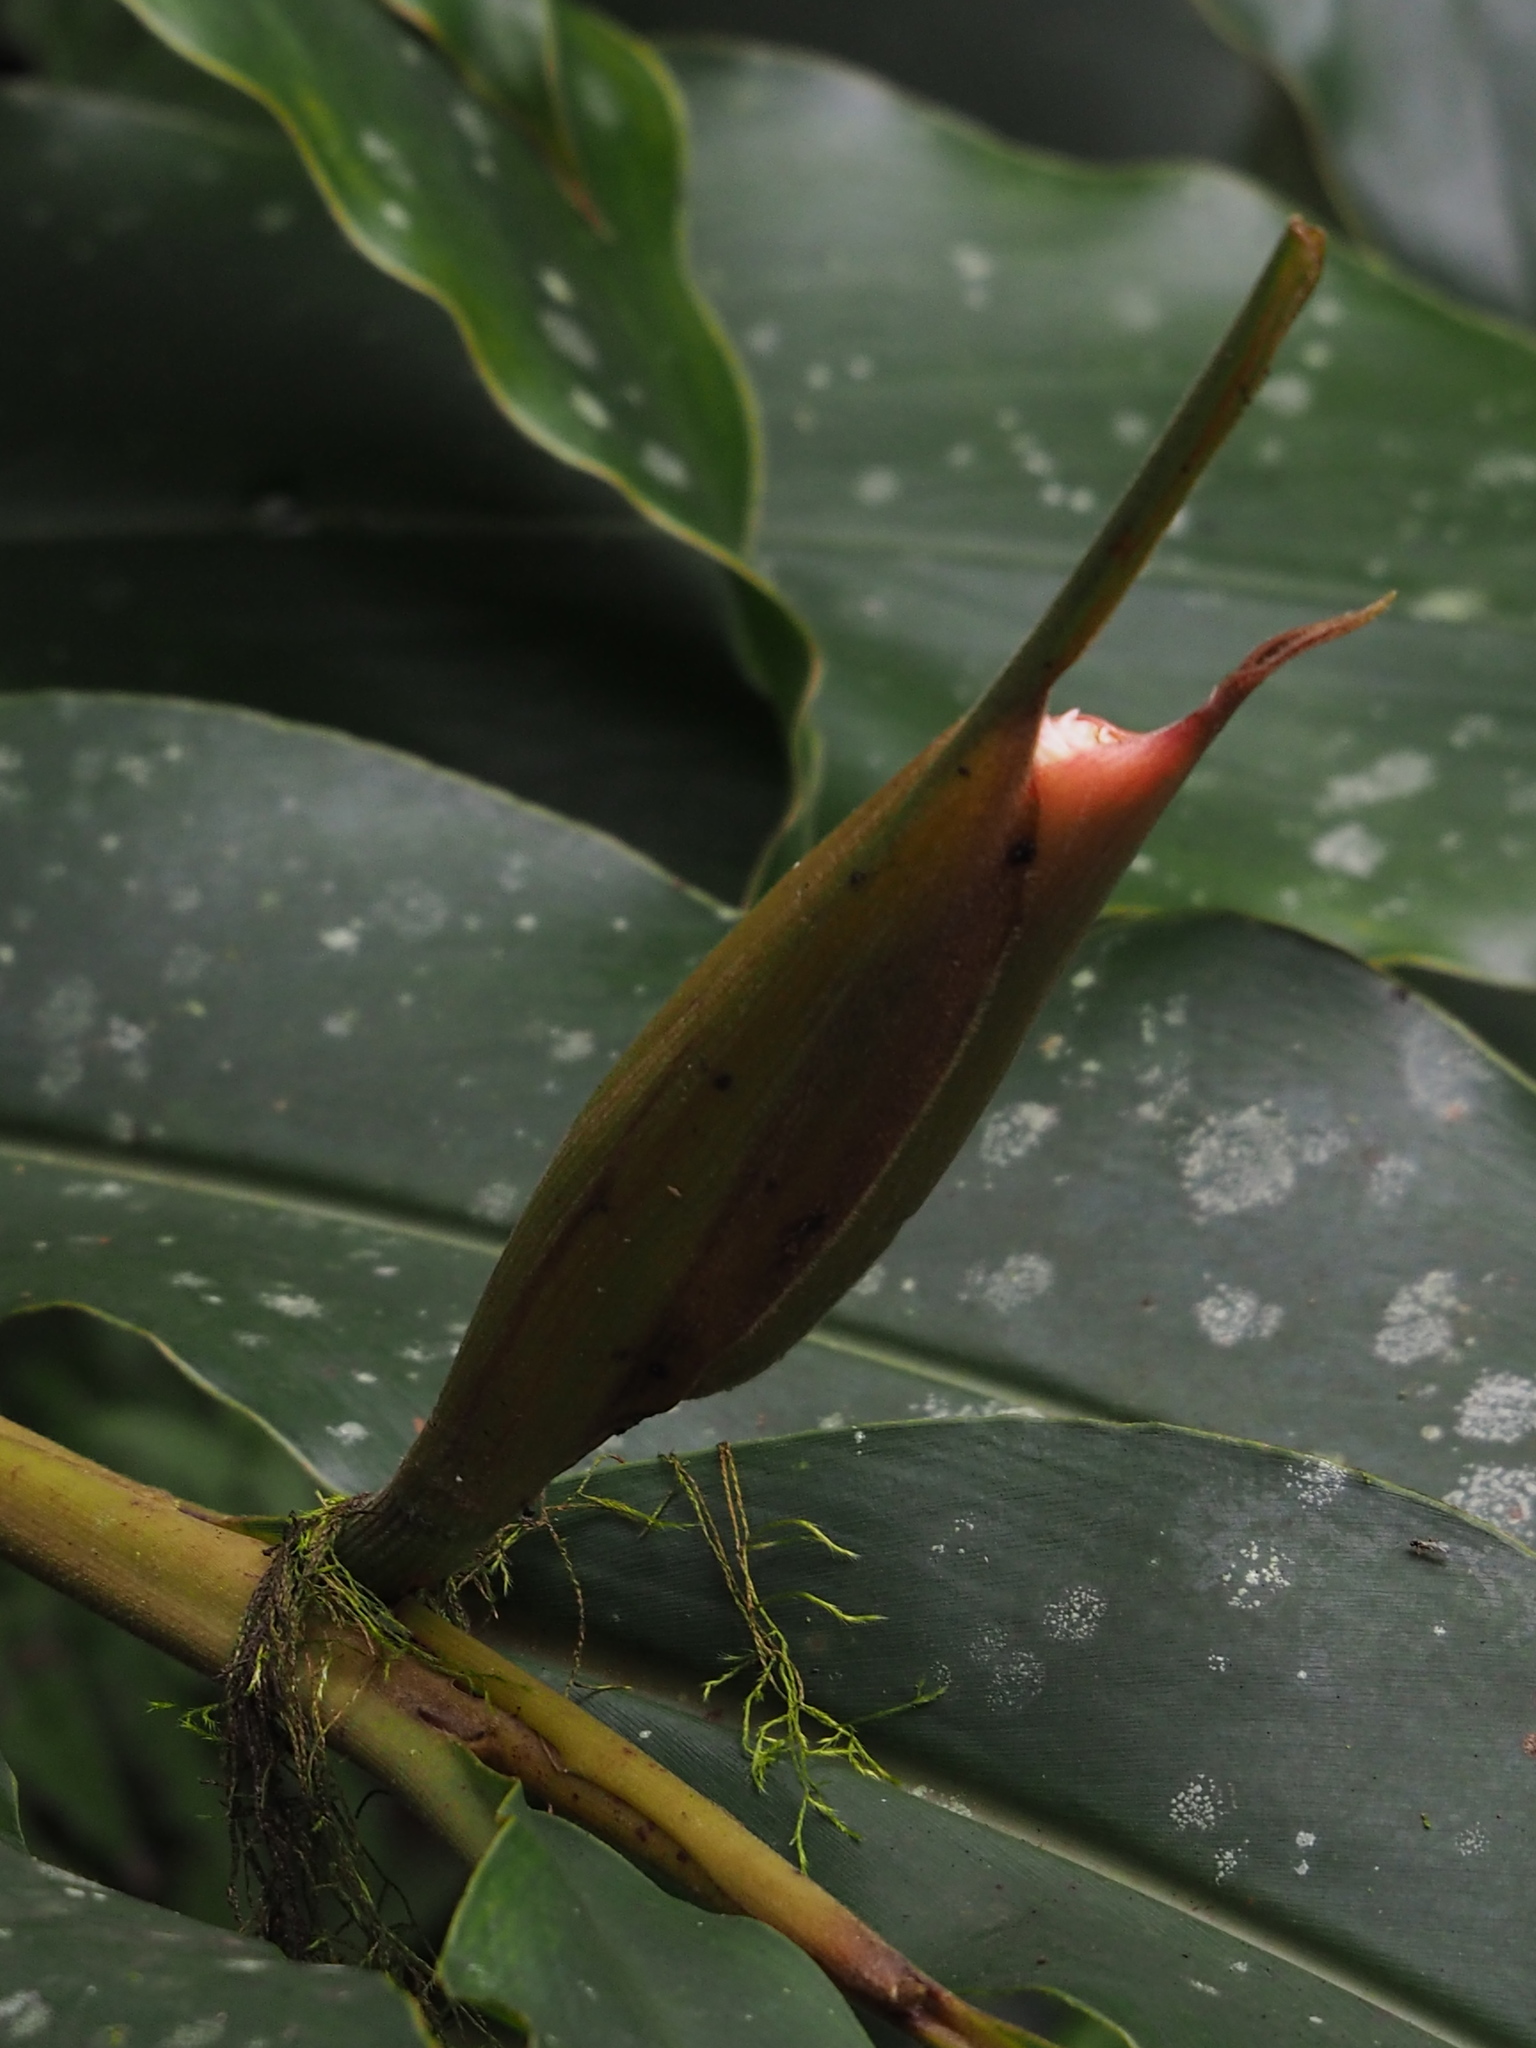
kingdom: Plantae
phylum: Tracheophyta
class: Liliopsida
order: Zingiberales
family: Zingiberaceae
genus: Alpinia
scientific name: Alpinia shimadae
